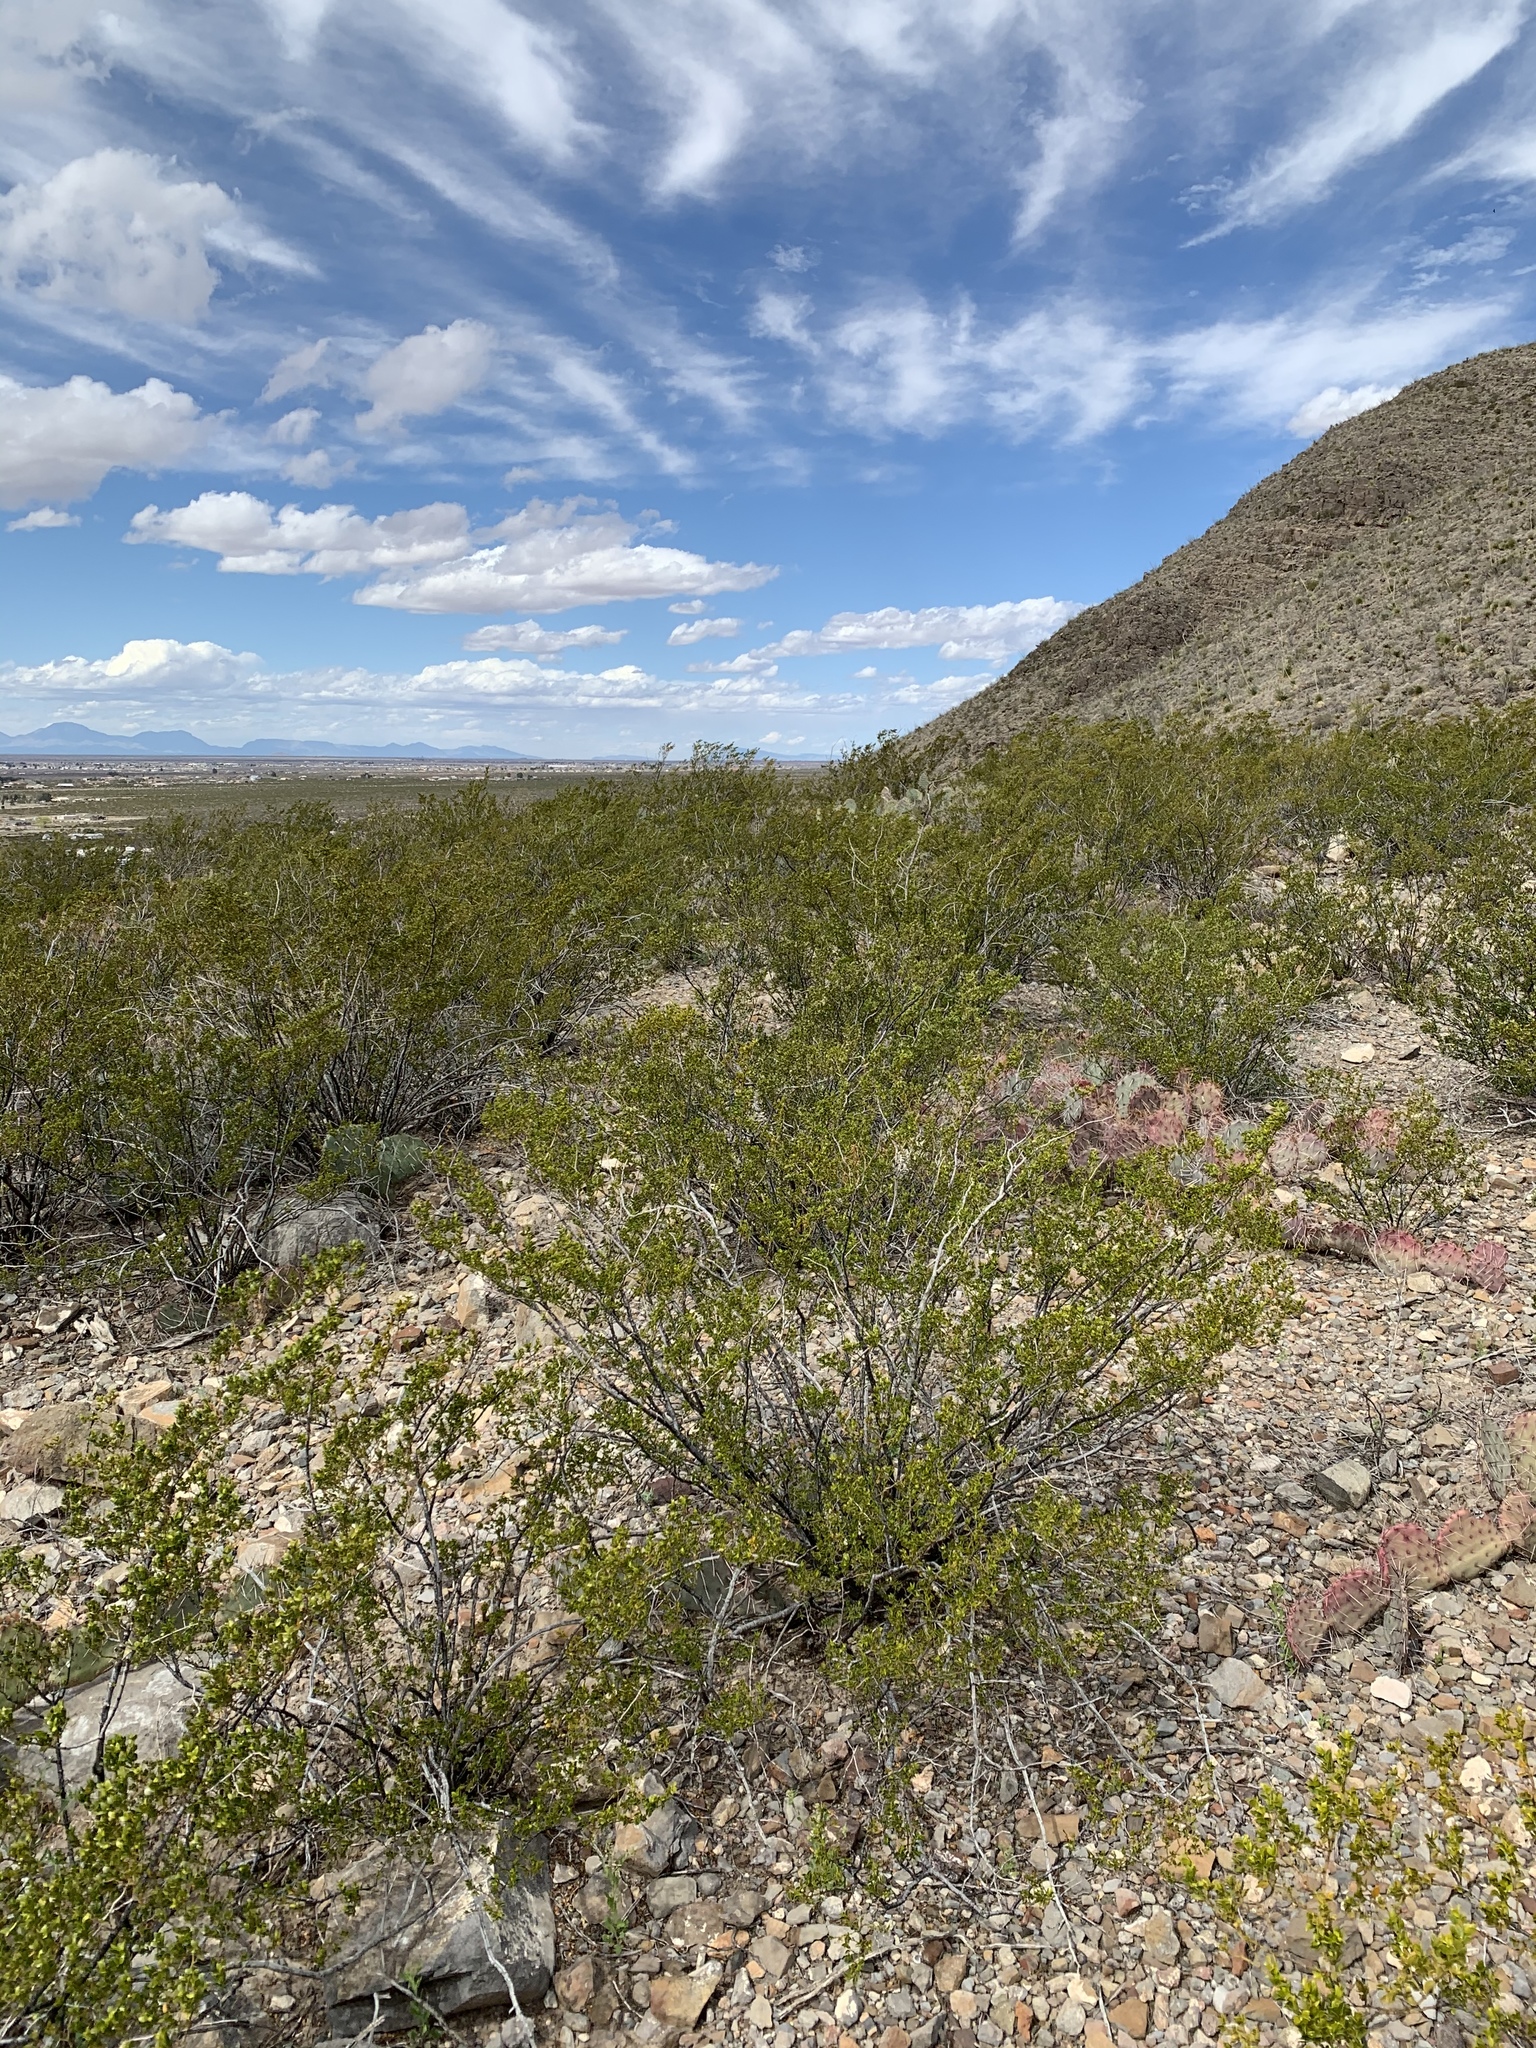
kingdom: Plantae
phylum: Tracheophyta
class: Magnoliopsida
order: Zygophyllales
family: Zygophyllaceae
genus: Larrea
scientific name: Larrea tridentata
